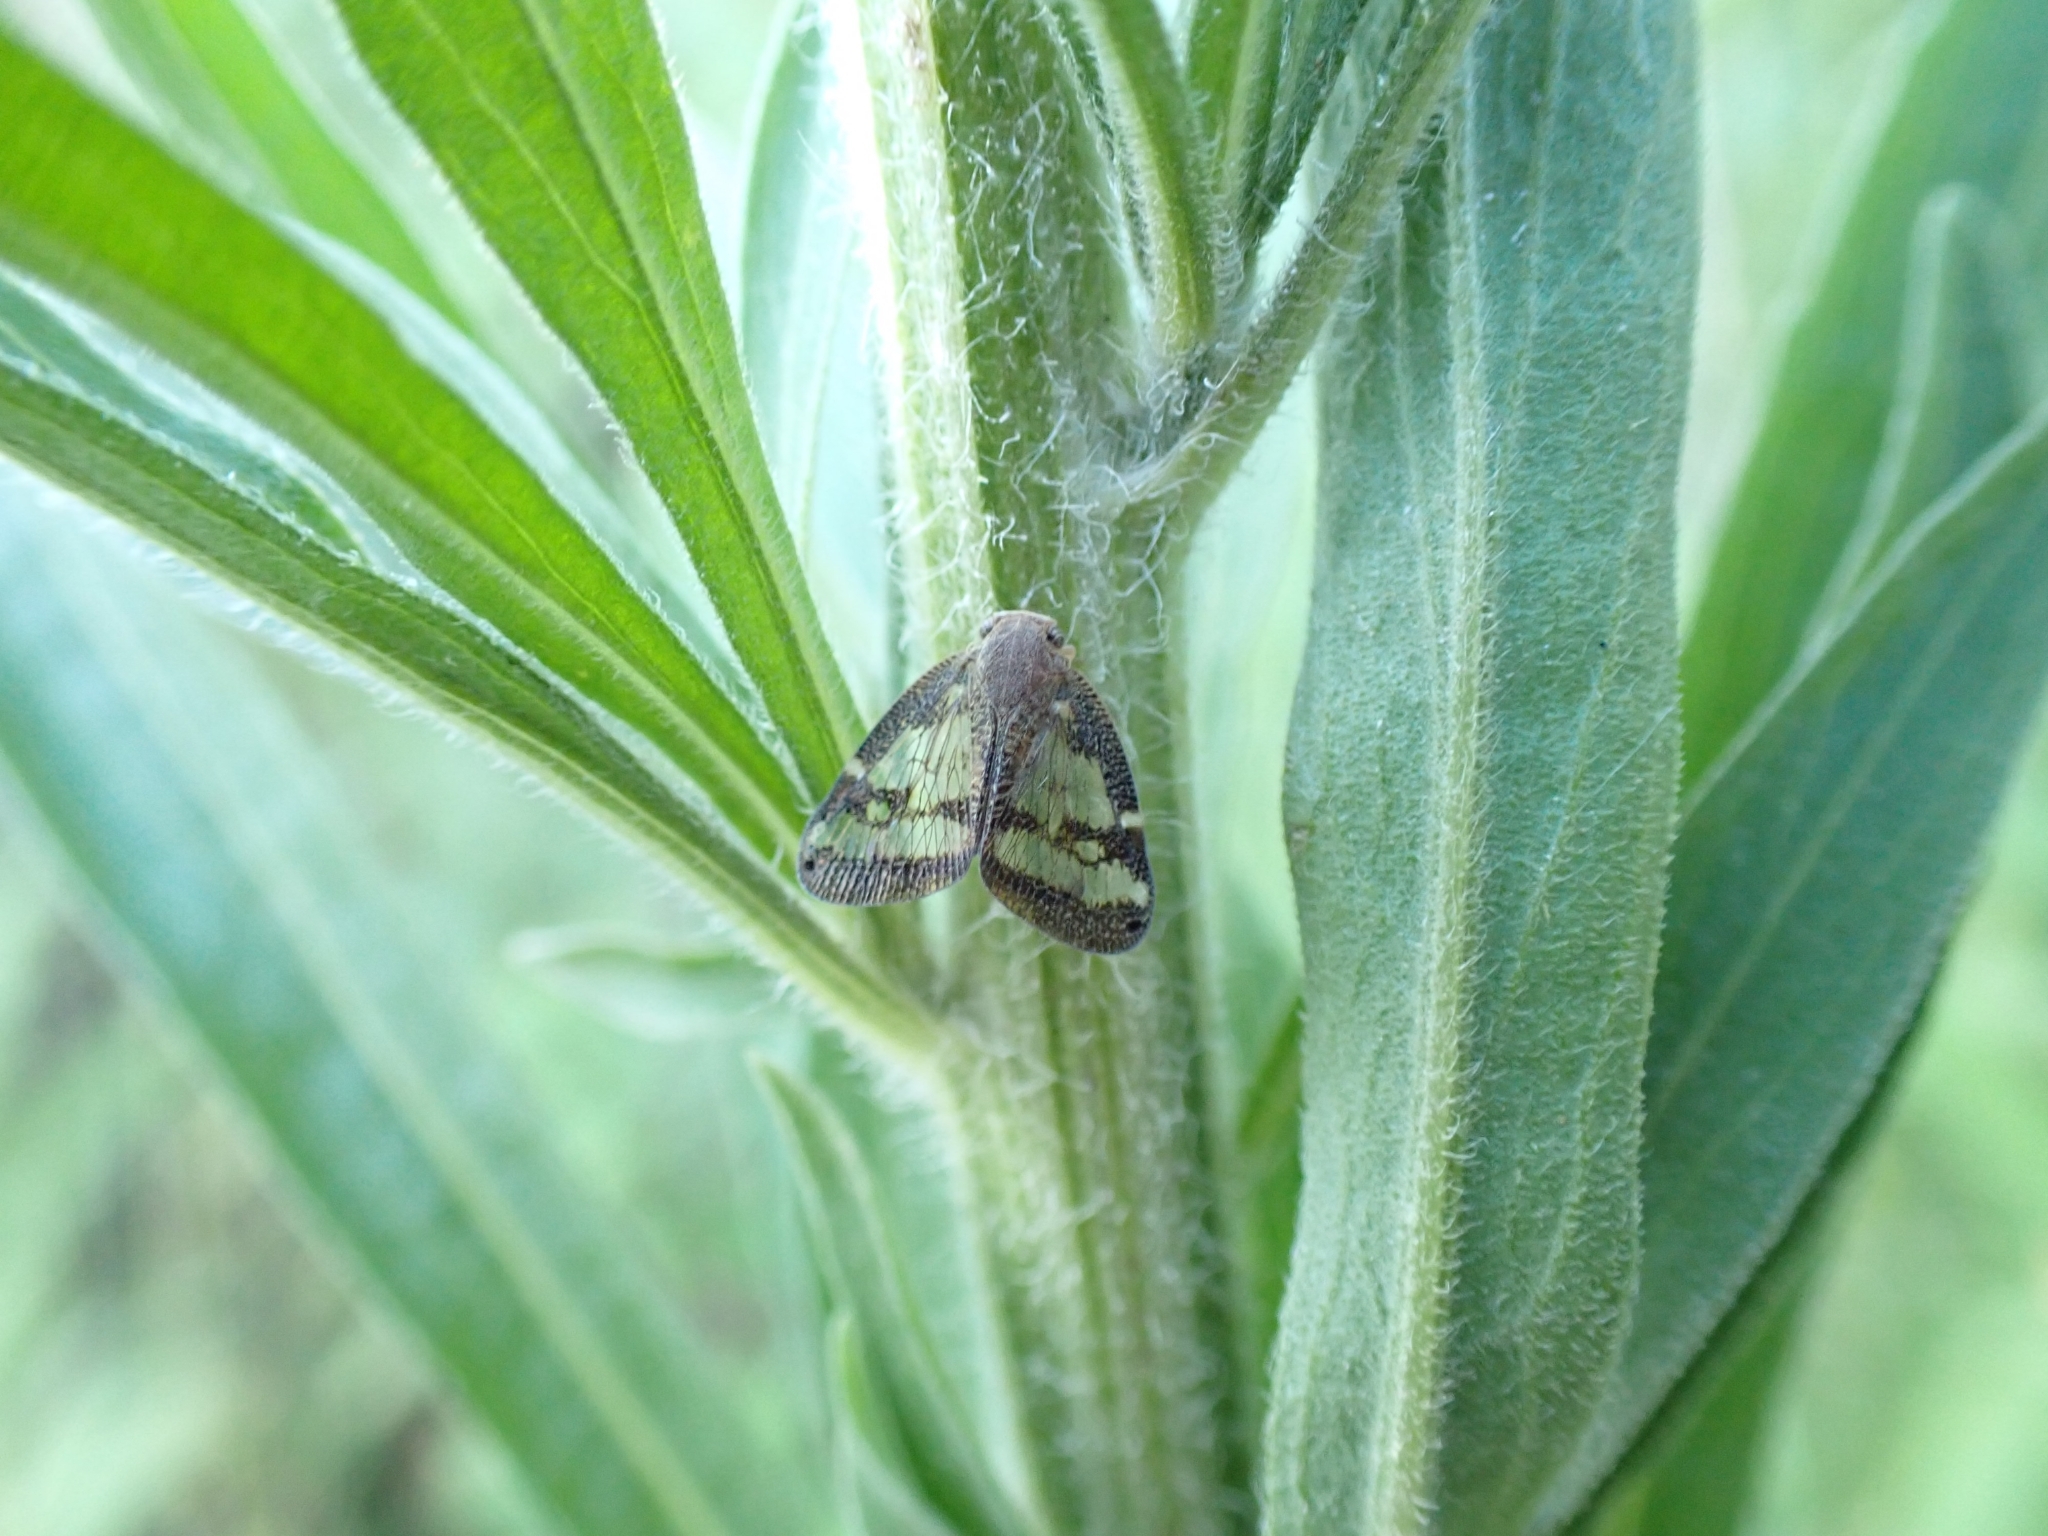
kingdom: Animalia
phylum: Arthropoda
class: Insecta
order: Hemiptera
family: Ricaniidae
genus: Scolypopa
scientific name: Scolypopa australis
